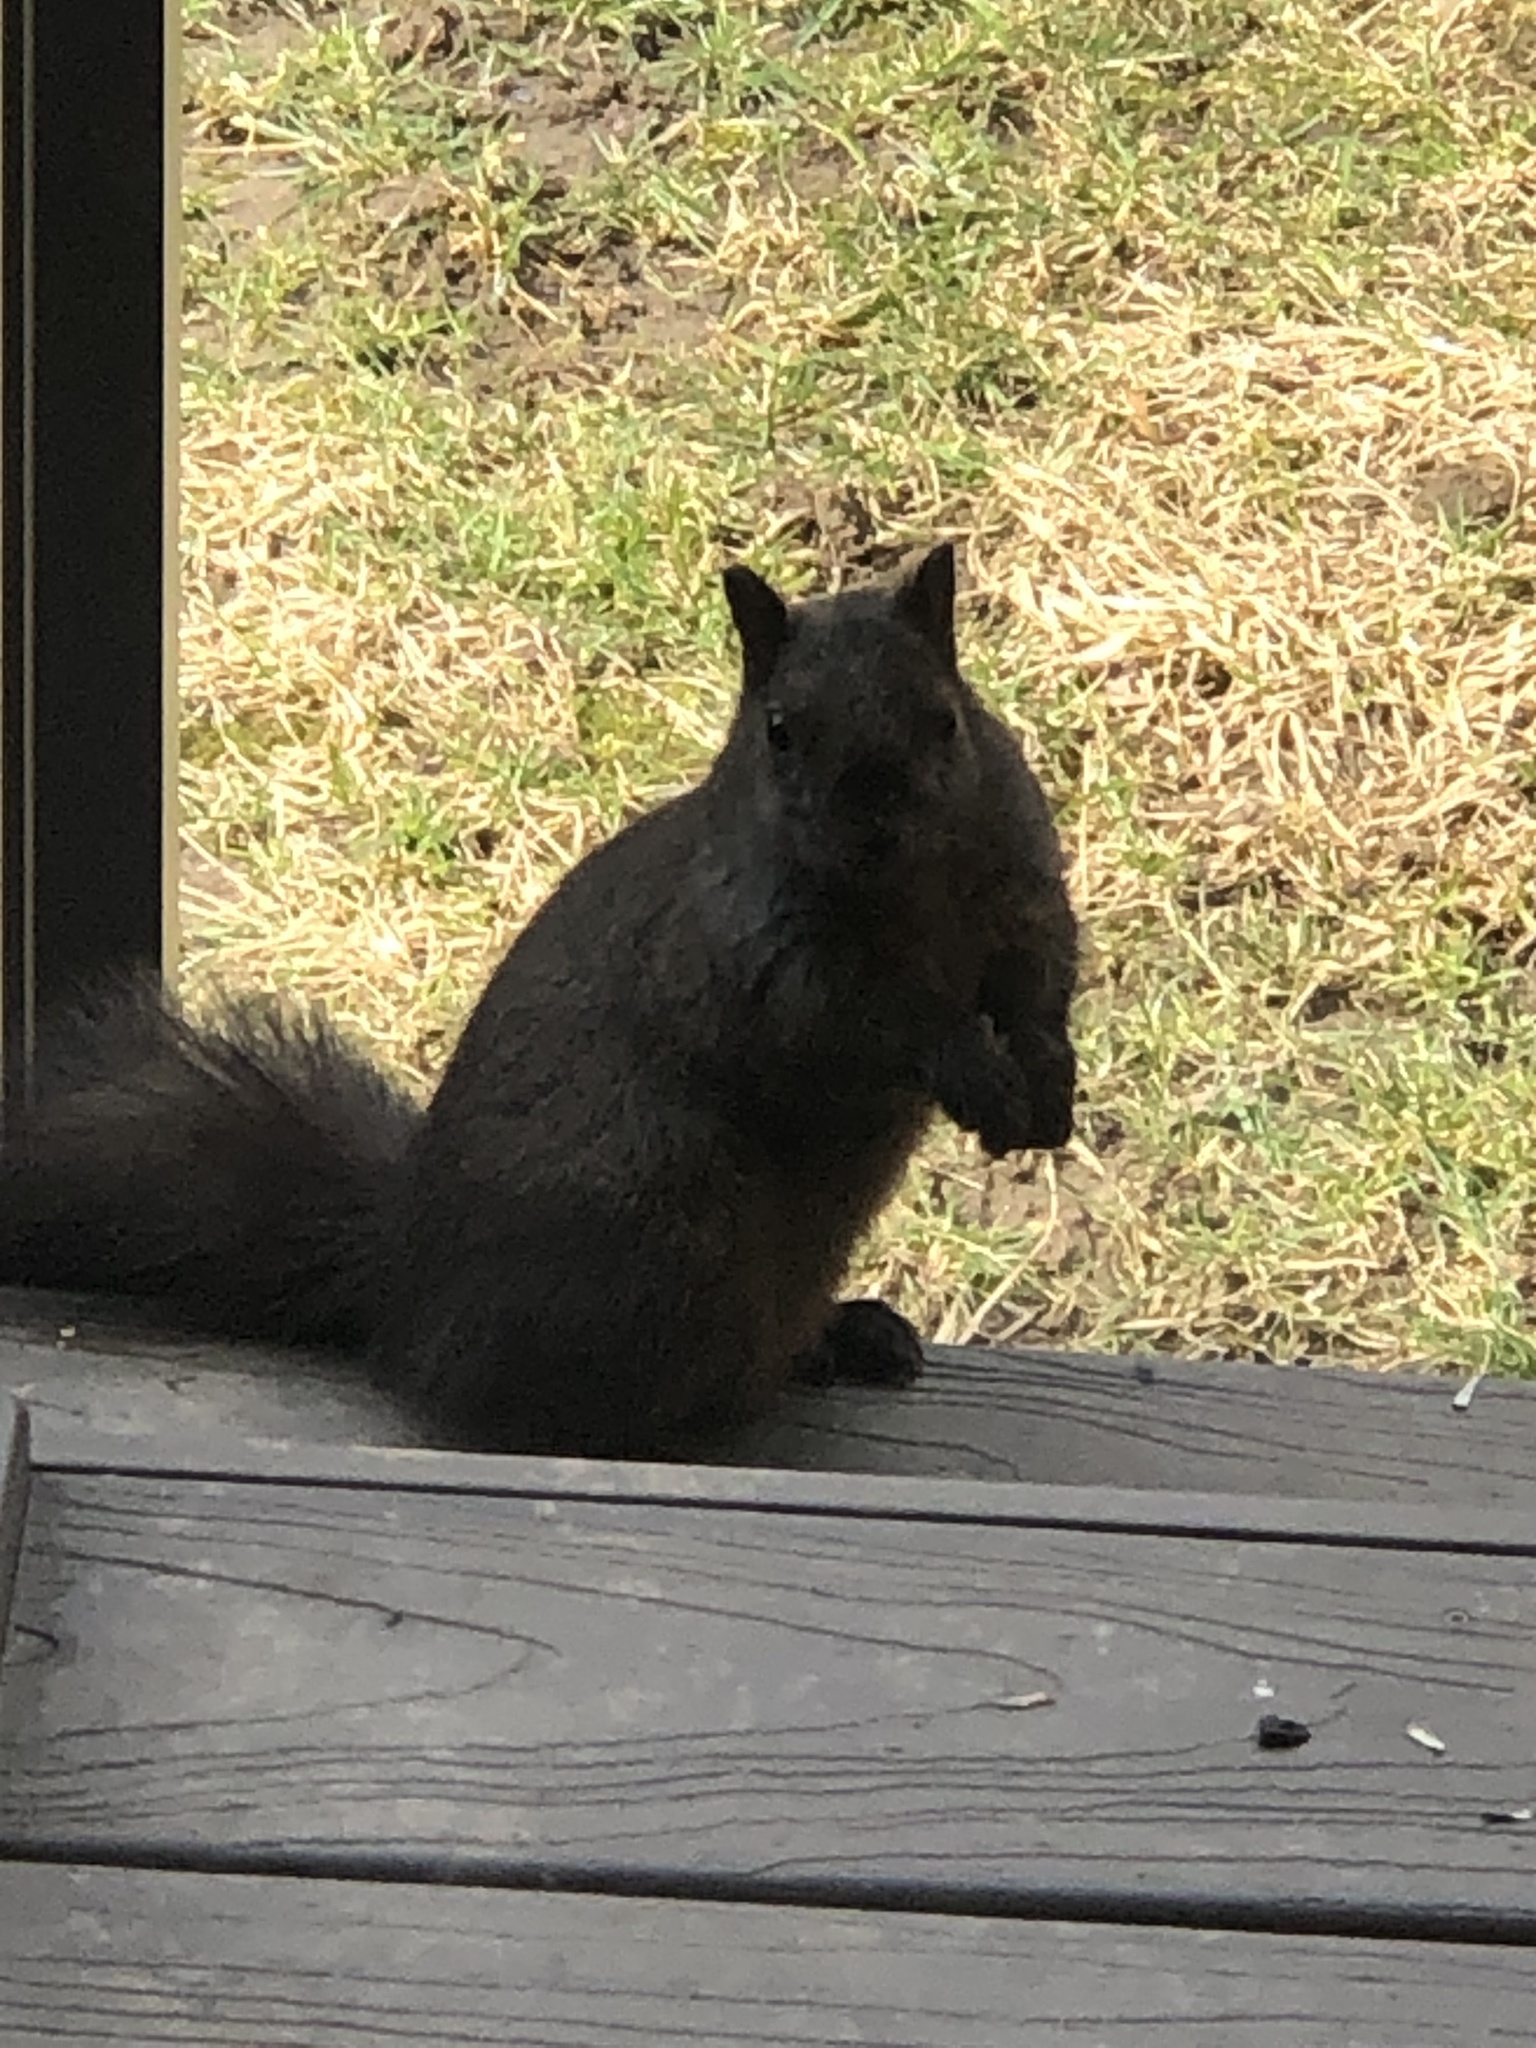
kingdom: Animalia
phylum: Chordata
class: Mammalia
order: Rodentia
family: Sciuridae
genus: Sciurus
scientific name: Sciurus carolinensis
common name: Eastern gray squirrel
